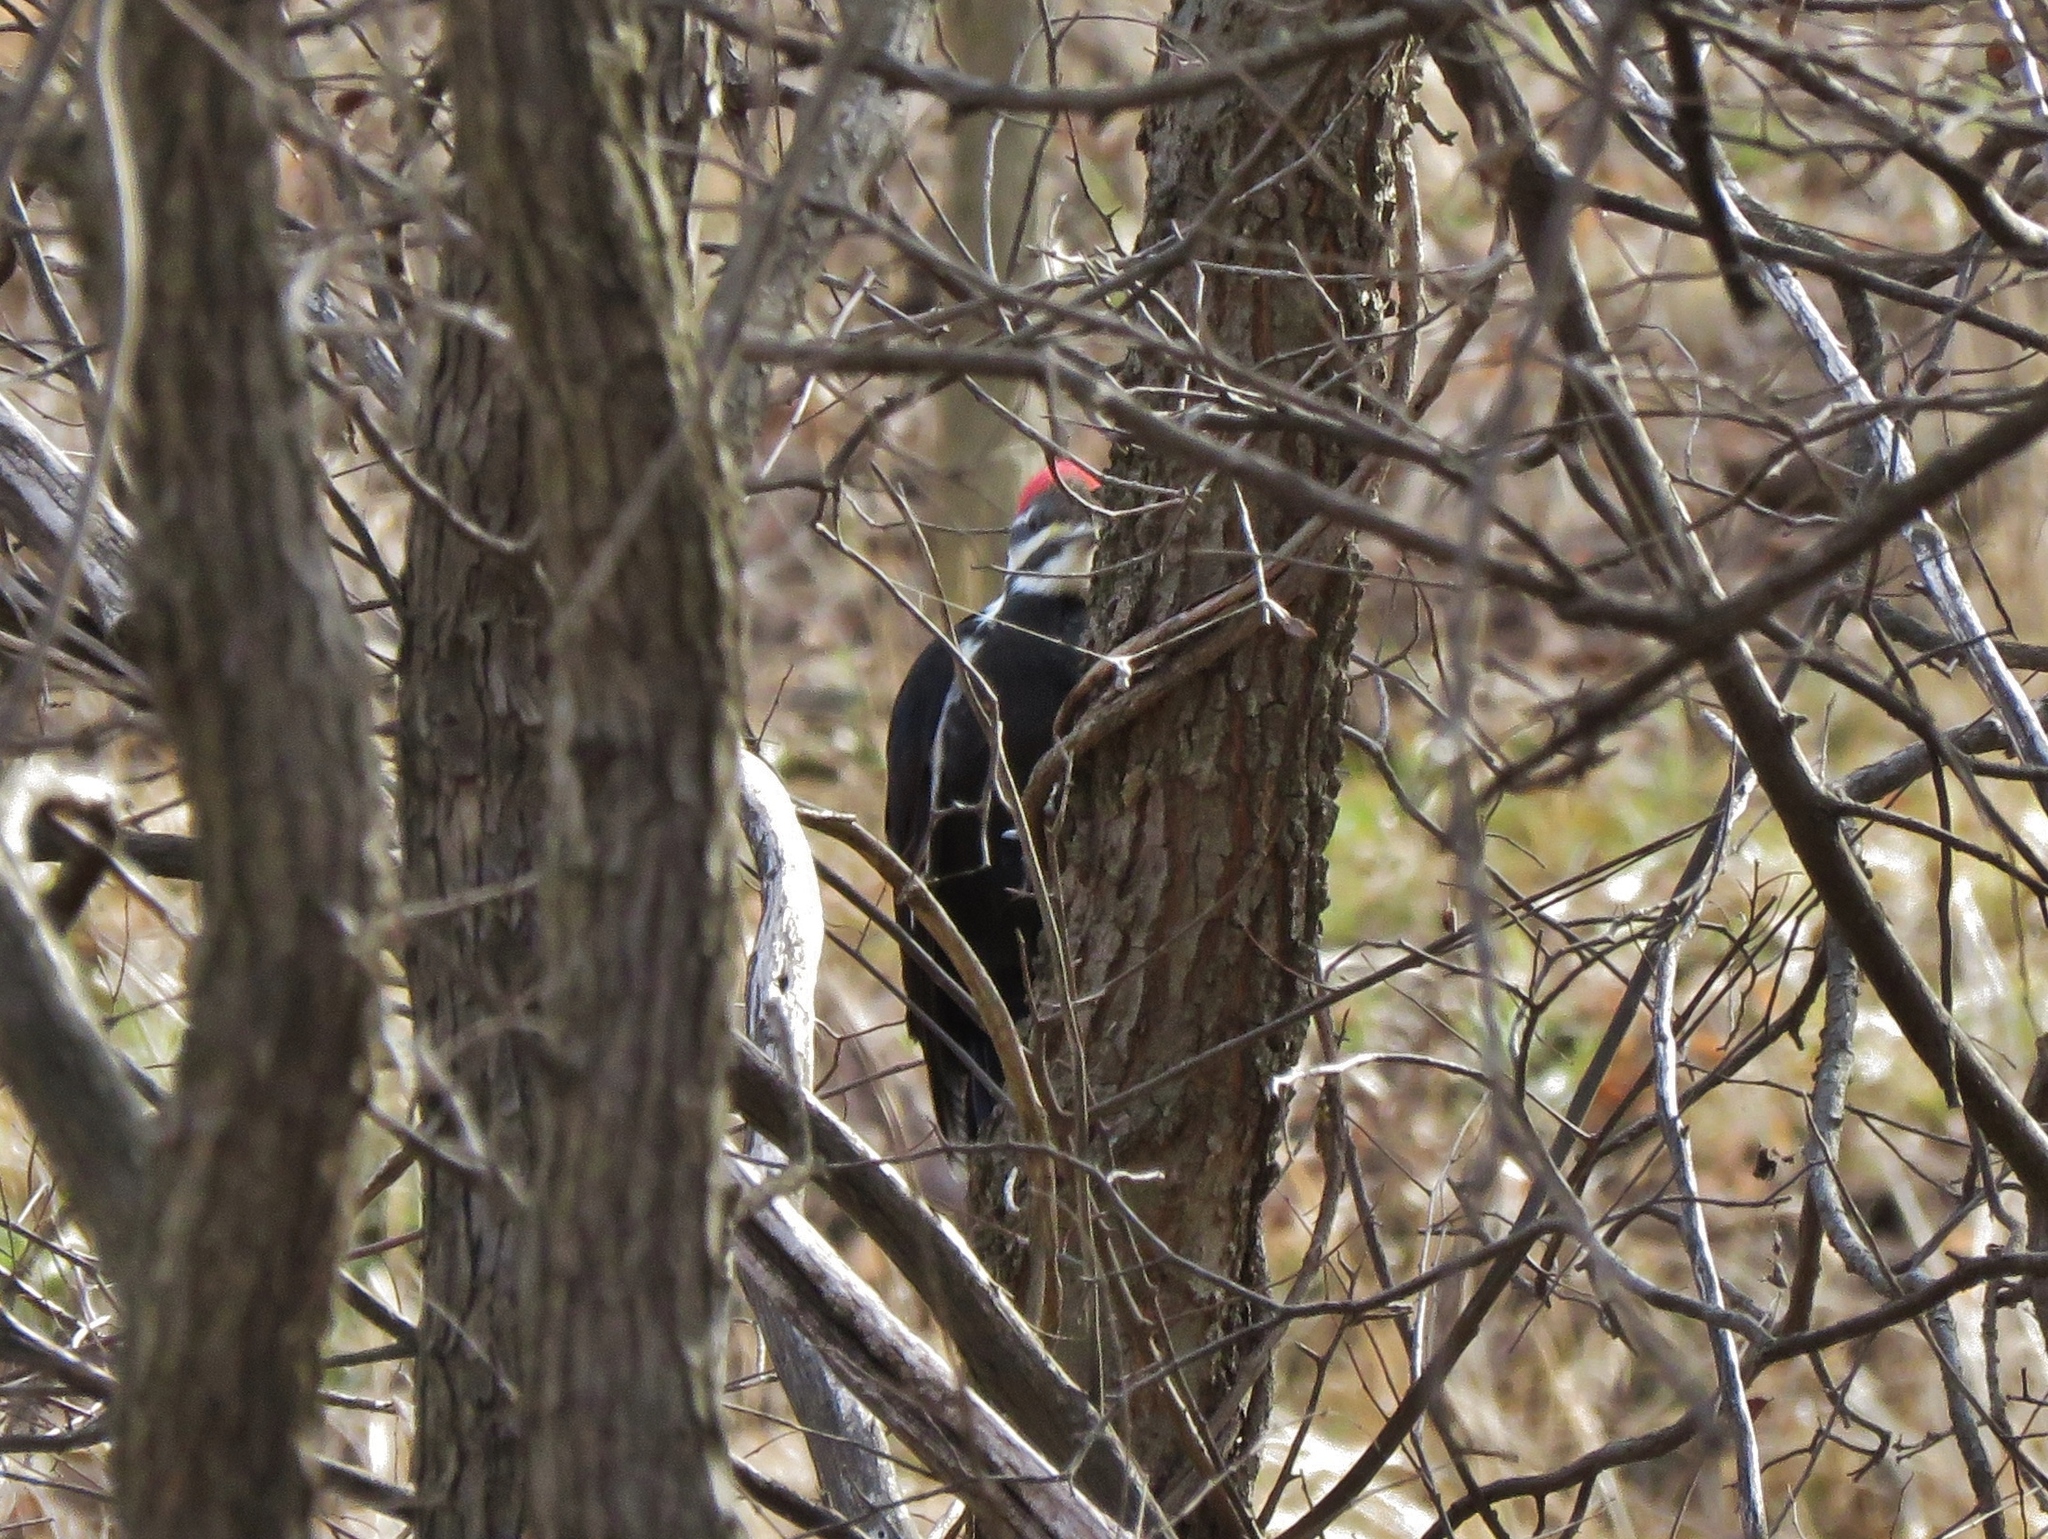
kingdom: Animalia
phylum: Chordata
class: Aves
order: Piciformes
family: Picidae
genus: Dryocopus
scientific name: Dryocopus pileatus
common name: Pileated woodpecker
